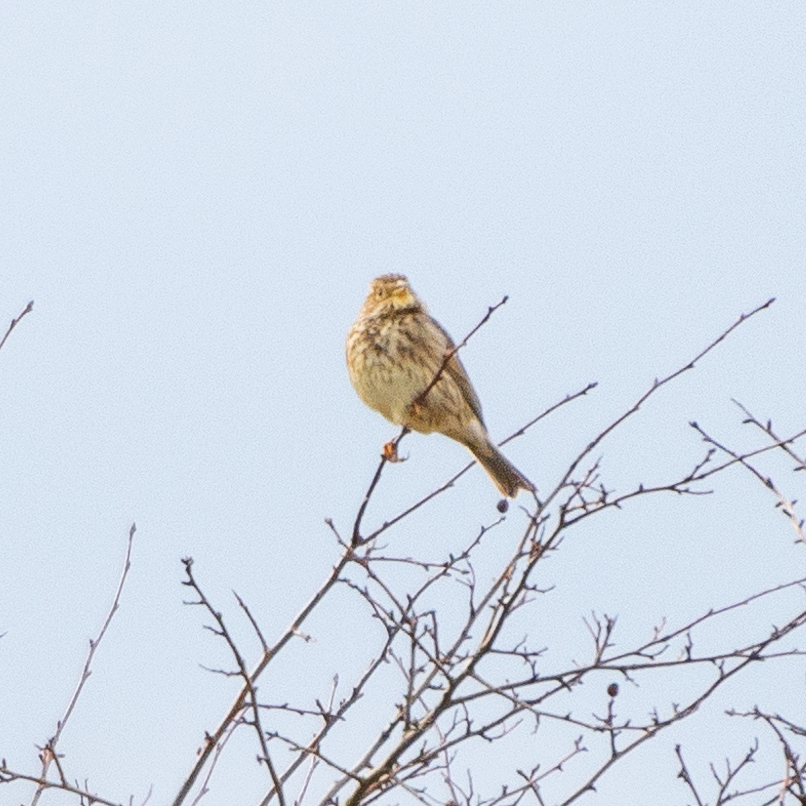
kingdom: Animalia
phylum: Chordata
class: Aves
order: Passeriformes
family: Emberizidae
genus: Emberiza
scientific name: Emberiza calandra
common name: Corn bunting
